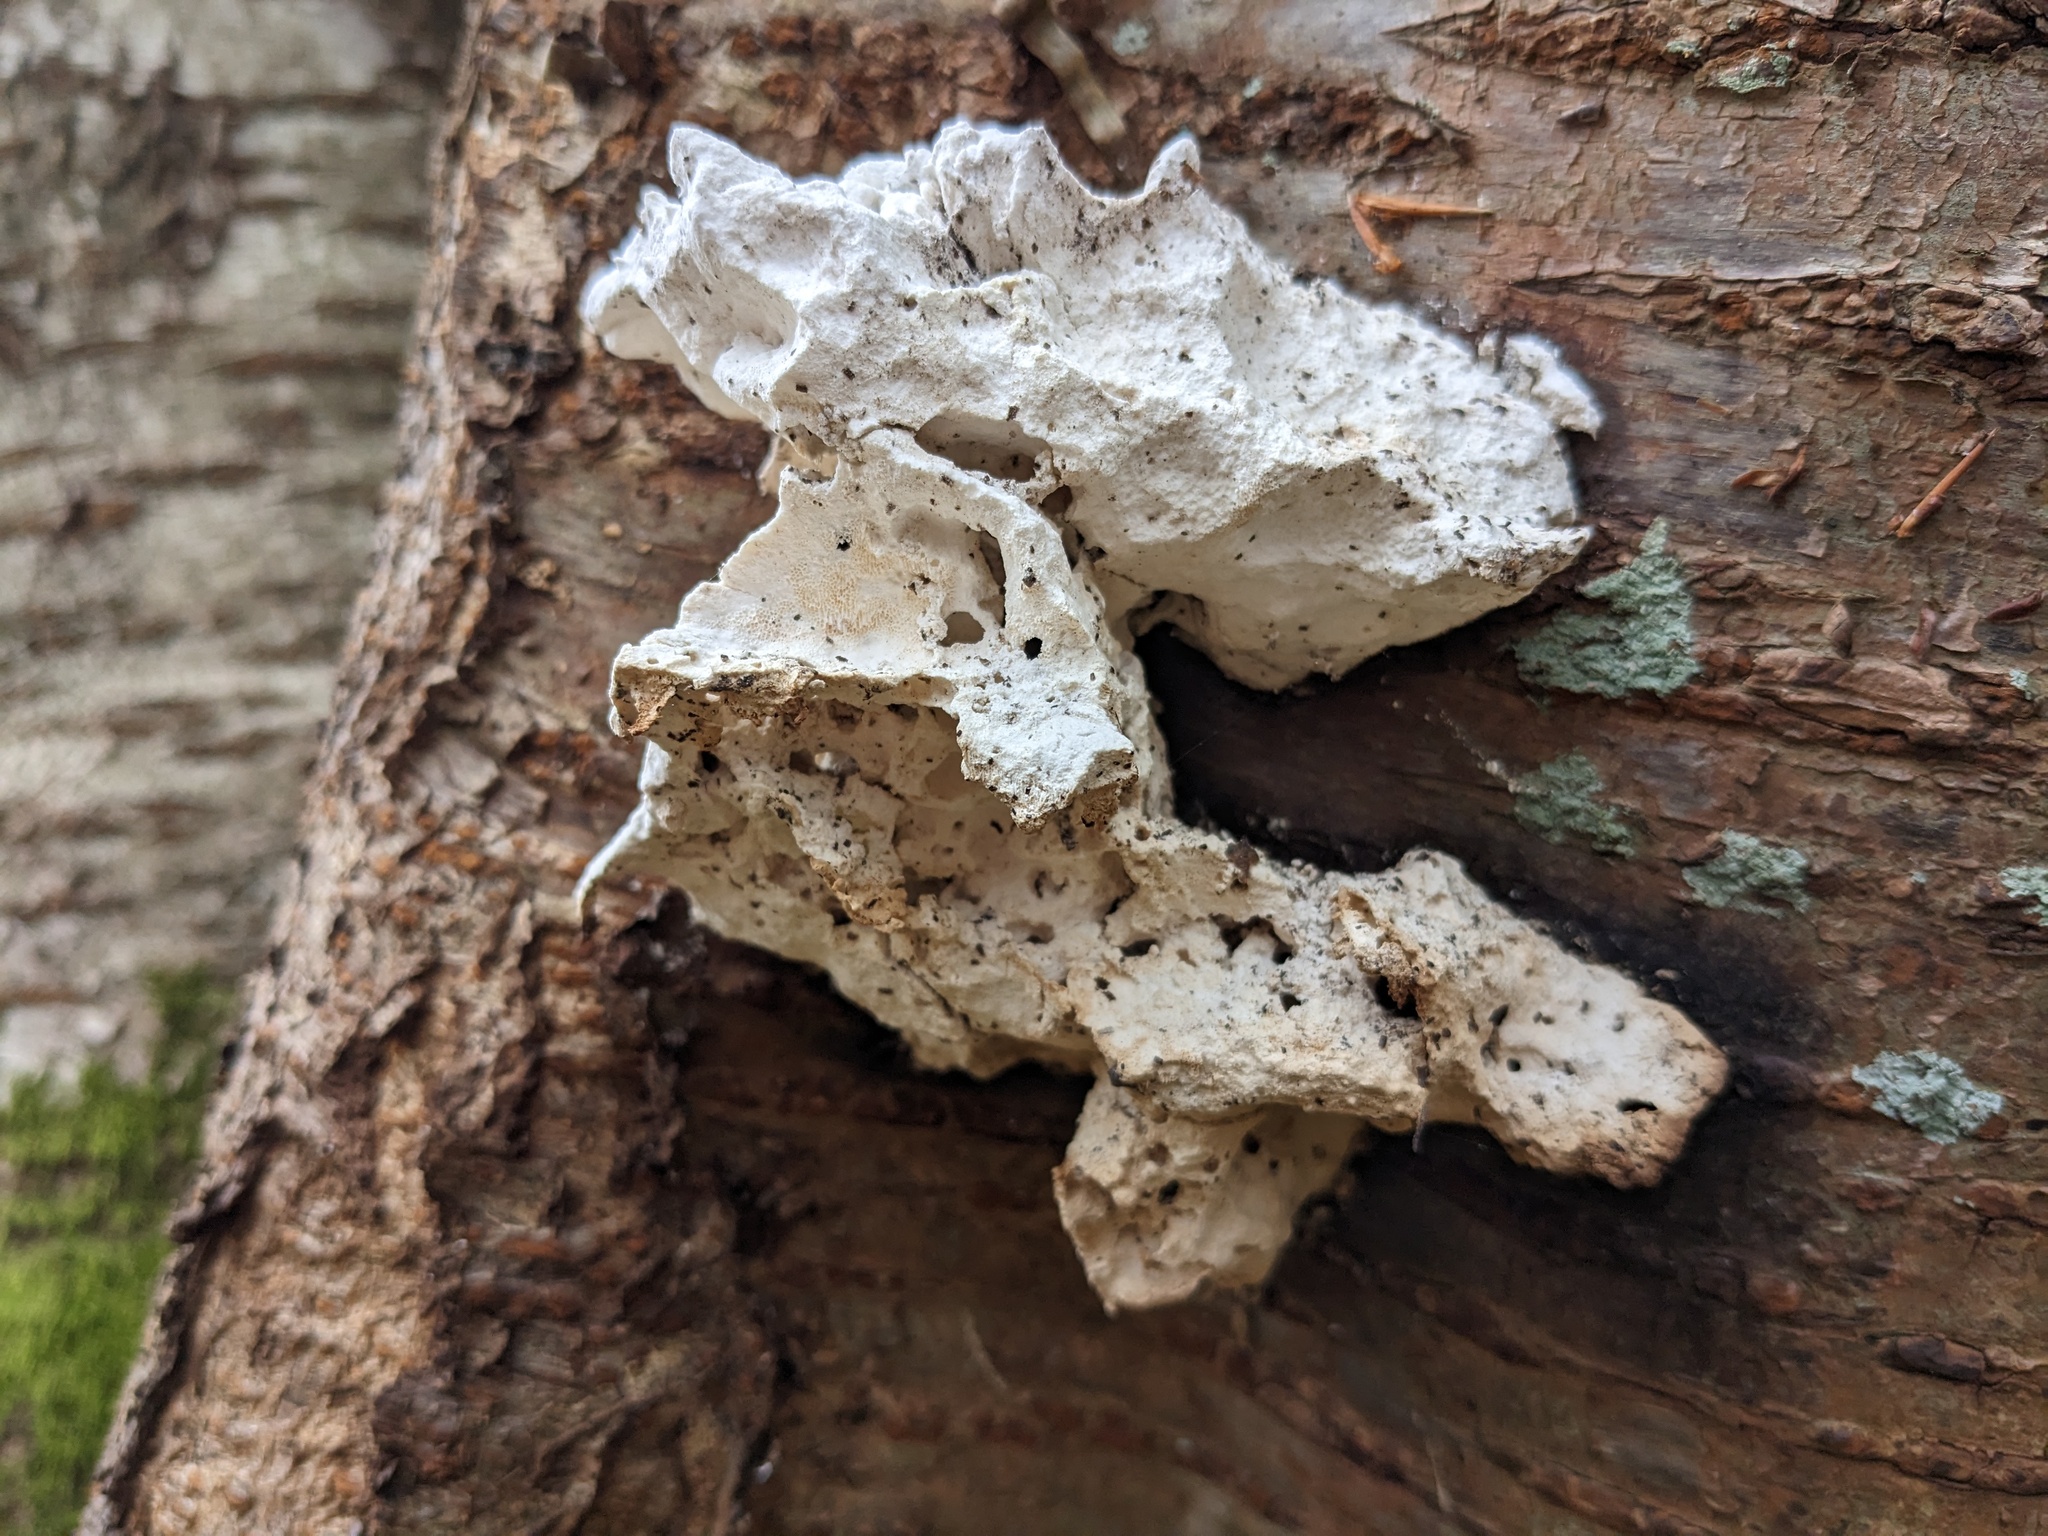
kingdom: Fungi
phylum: Basidiomycota
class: Agaricomycetes
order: Polyporales
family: Laetiporaceae
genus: Laetiporus
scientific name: Laetiporus sulphureus
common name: Chicken of the woods
